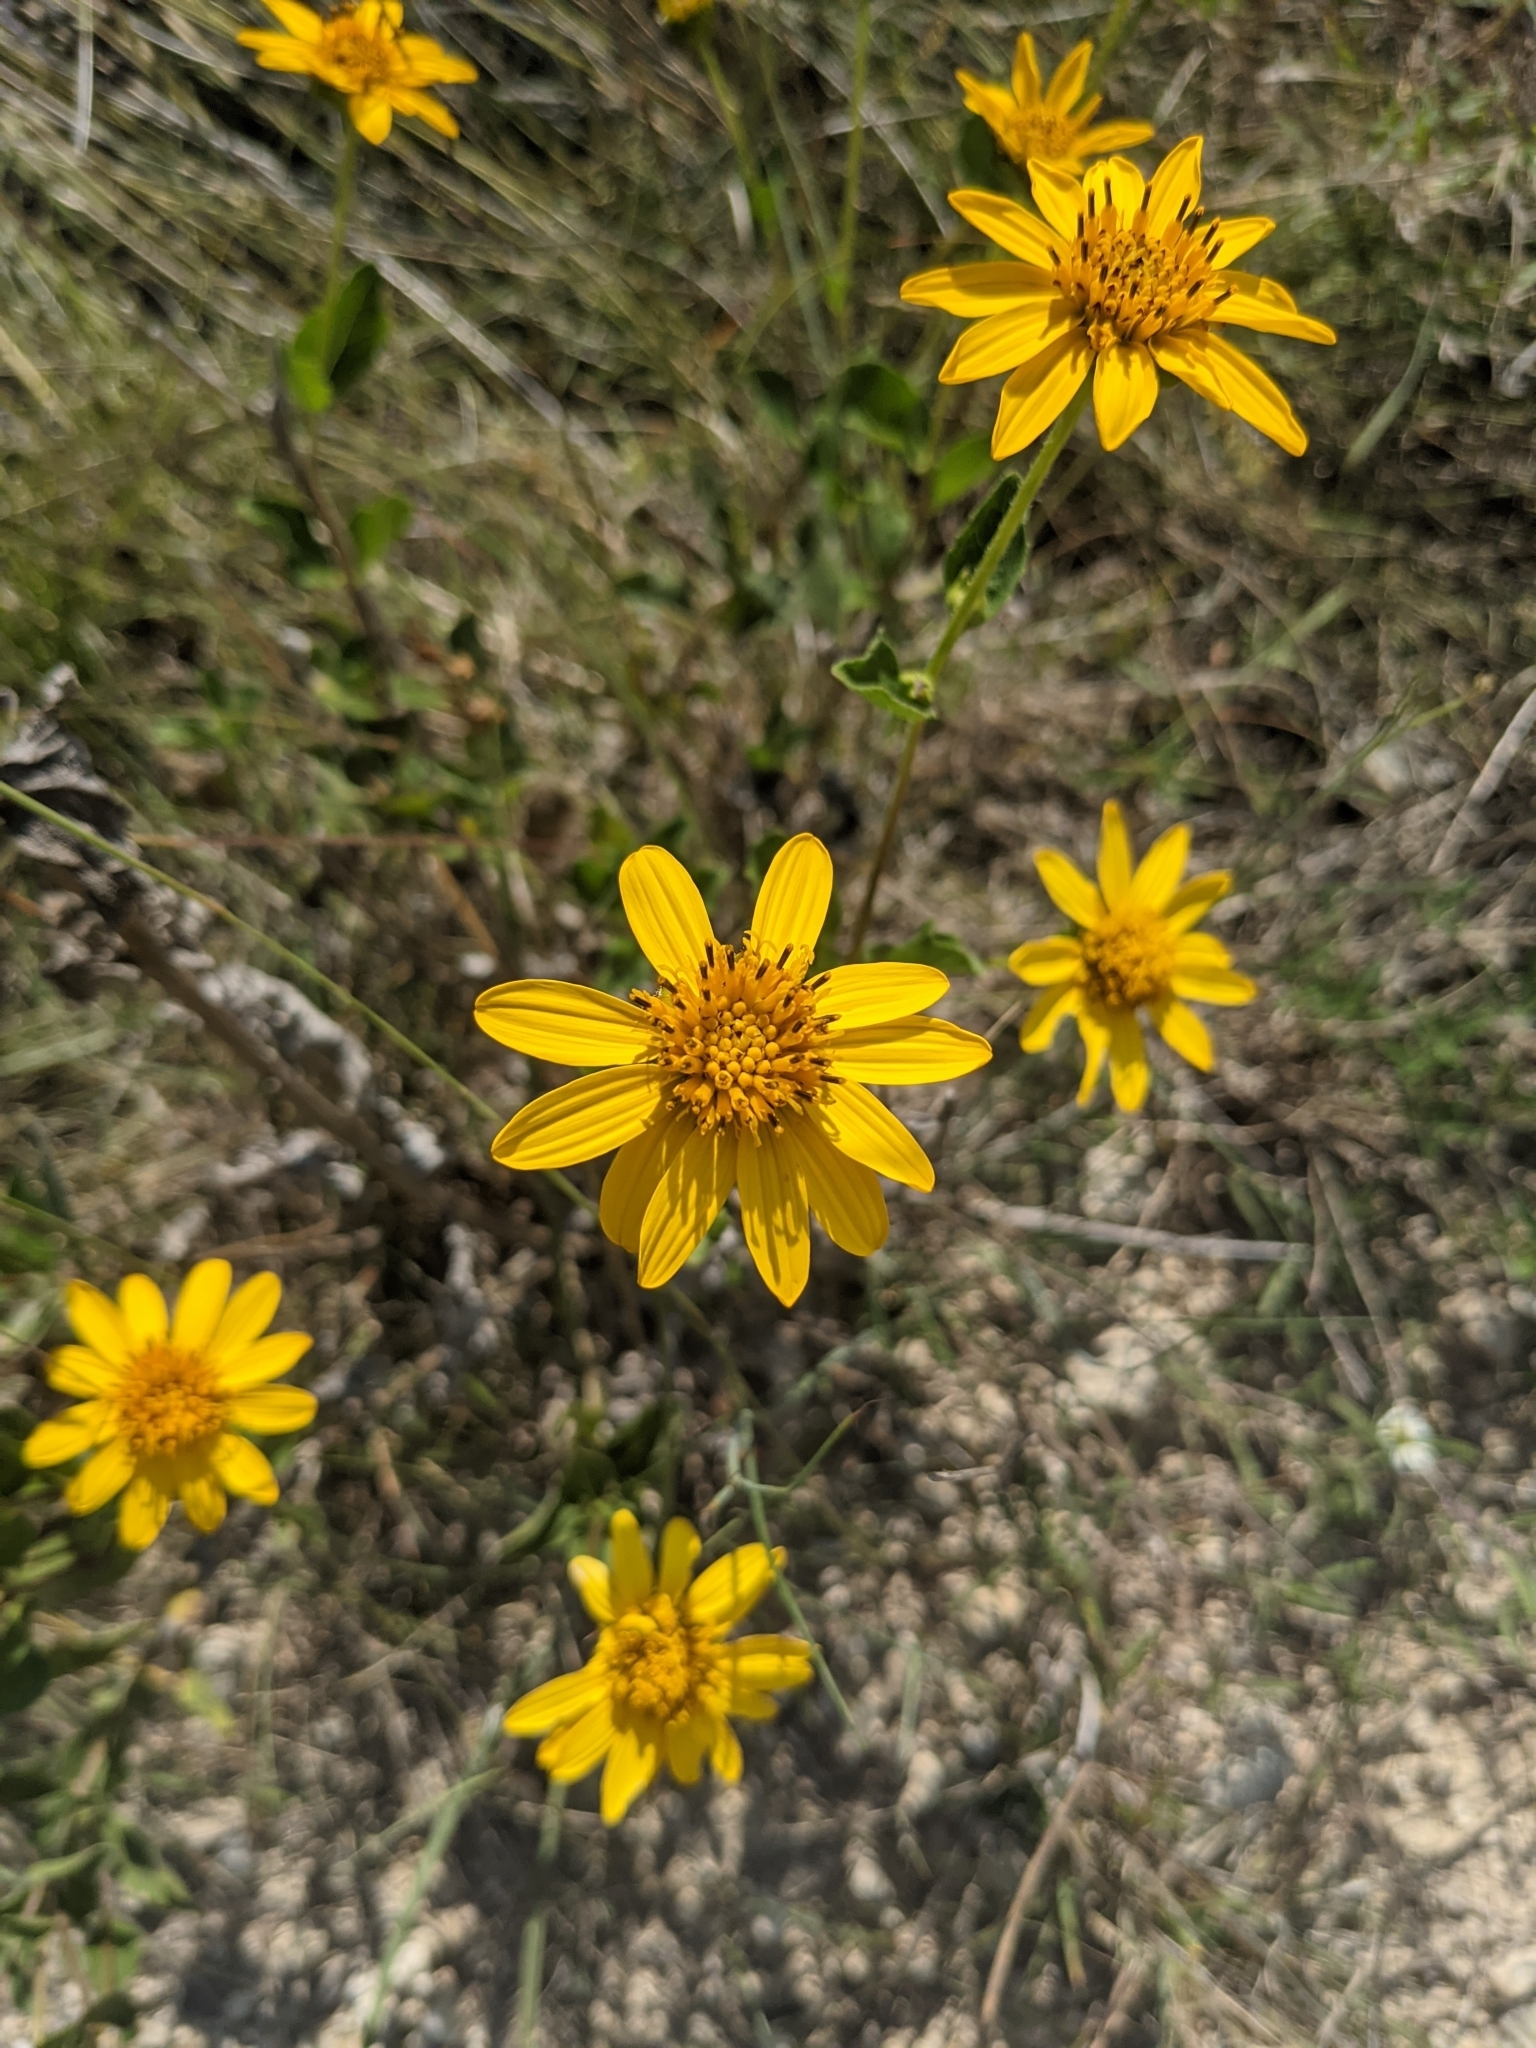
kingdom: Plantae
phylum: Tracheophyta
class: Magnoliopsida
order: Asterales
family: Asteraceae
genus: Verbesina
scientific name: Verbesina lindheimeri
